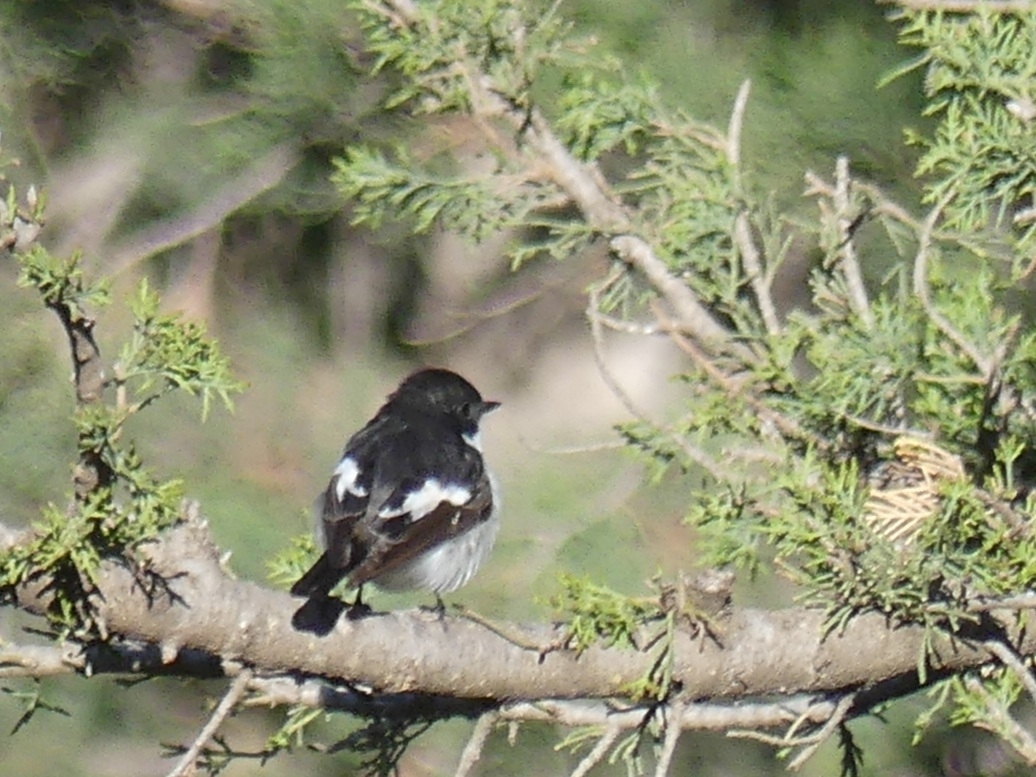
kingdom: Animalia
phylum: Chordata
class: Aves
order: Passeriformes
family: Muscicapidae
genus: Ficedula
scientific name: Ficedula hypoleuca
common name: European pied flycatcher
